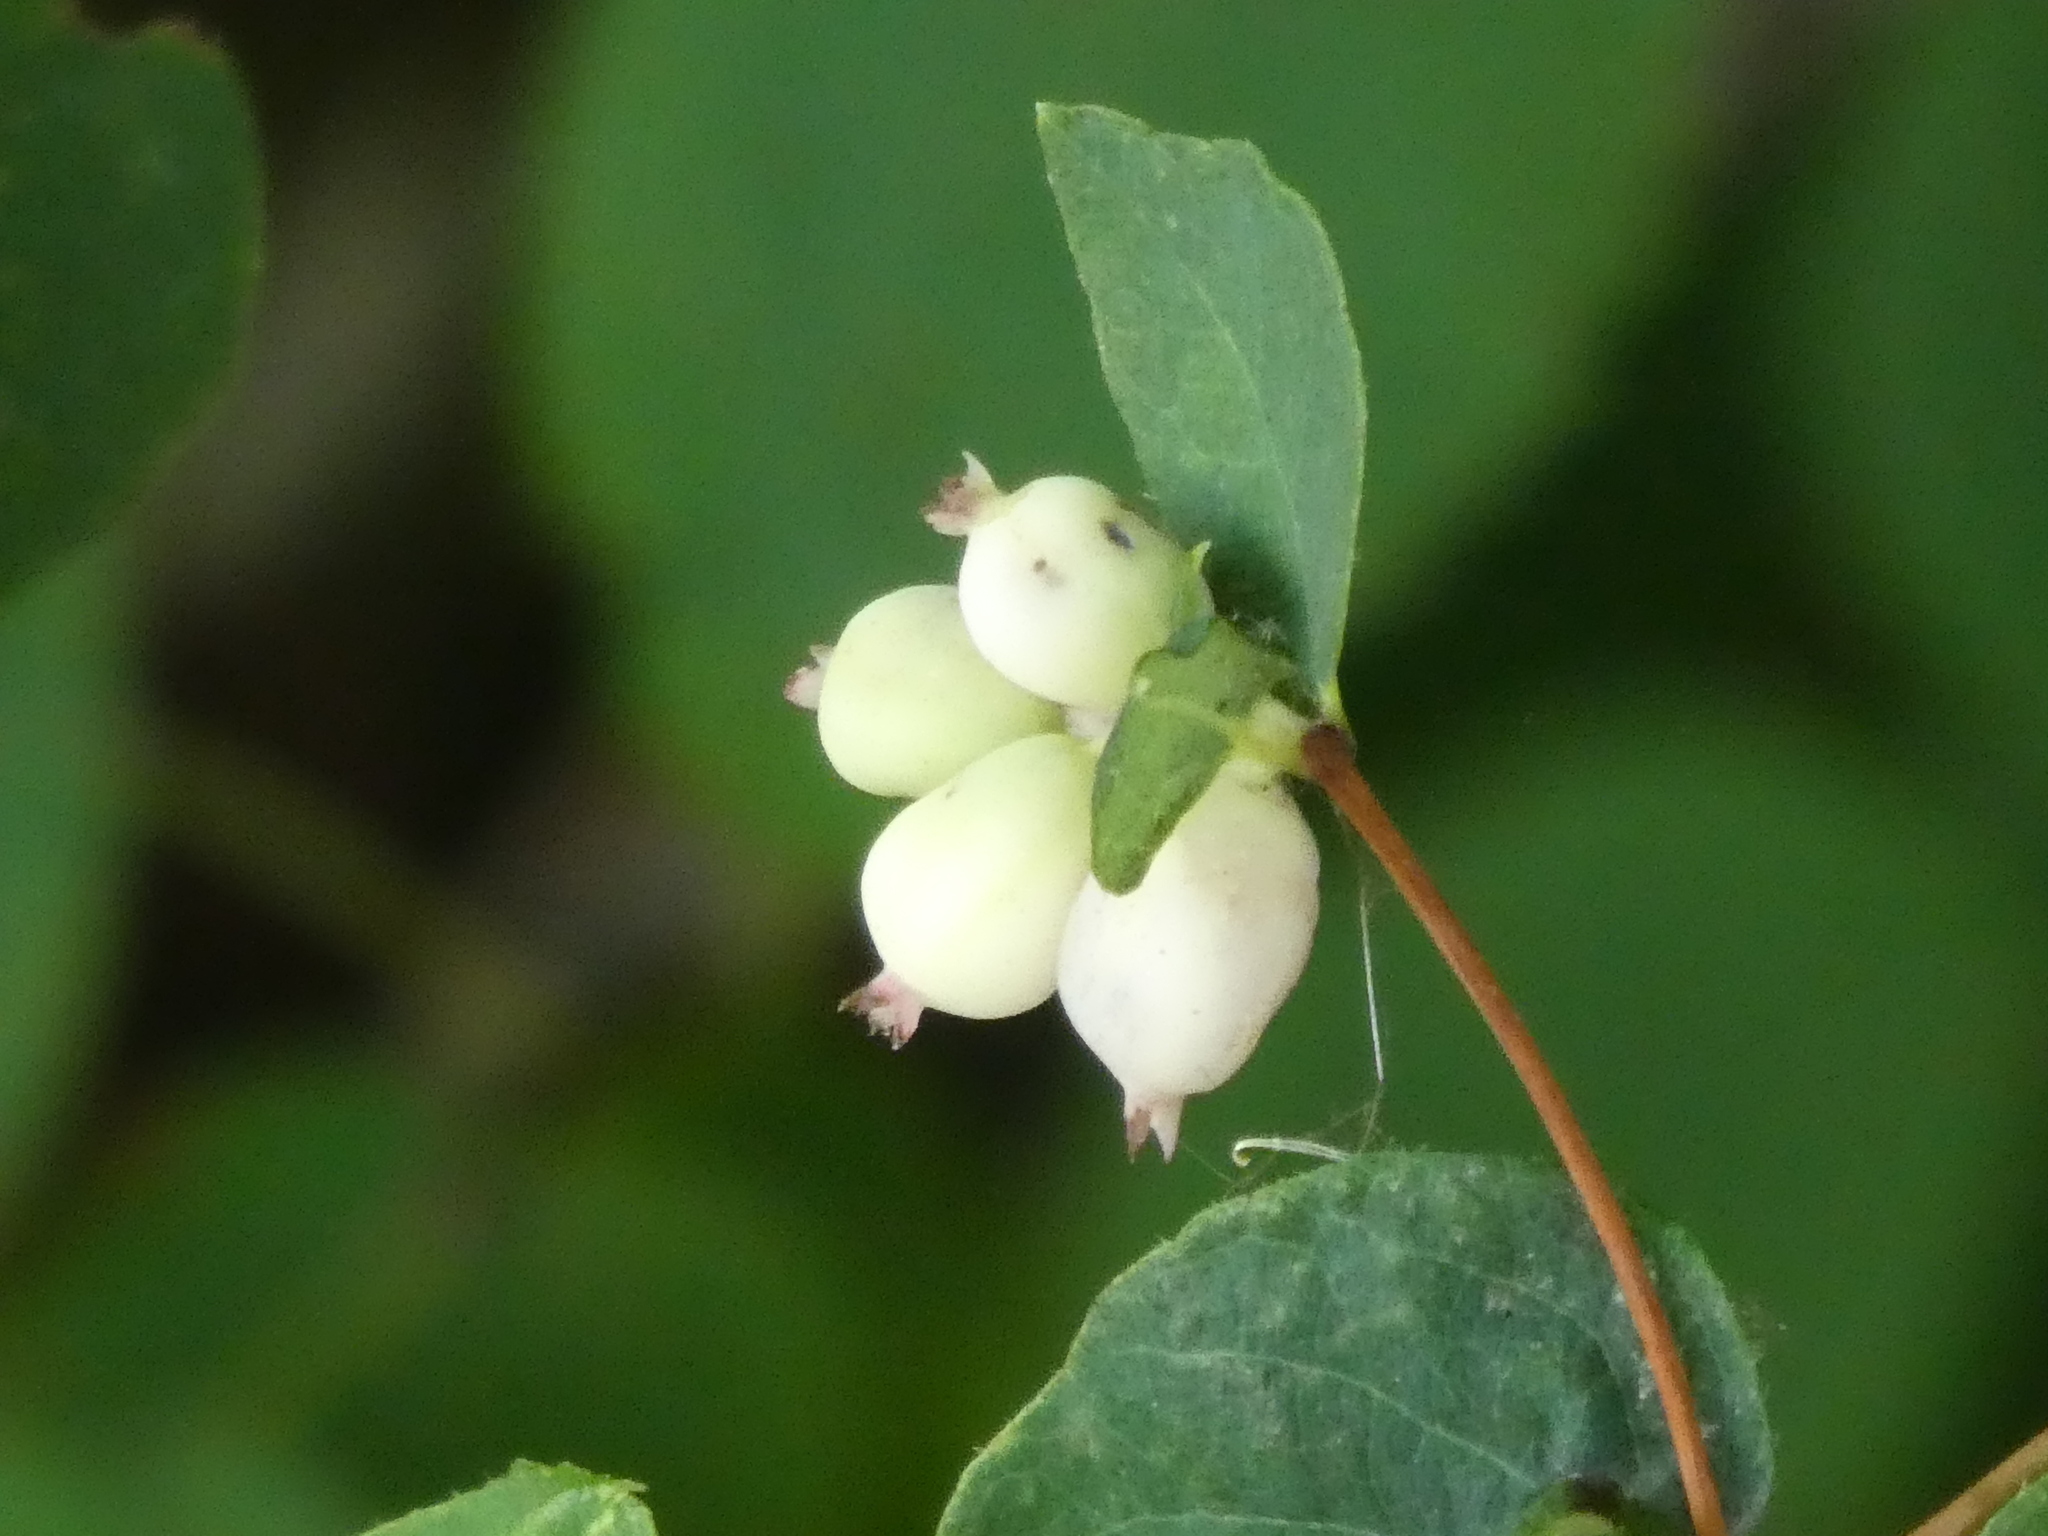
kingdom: Plantae
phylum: Tracheophyta
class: Magnoliopsida
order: Dipsacales
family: Caprifoliaceae
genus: Symphoricarpos
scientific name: Symphoricarpos albus
